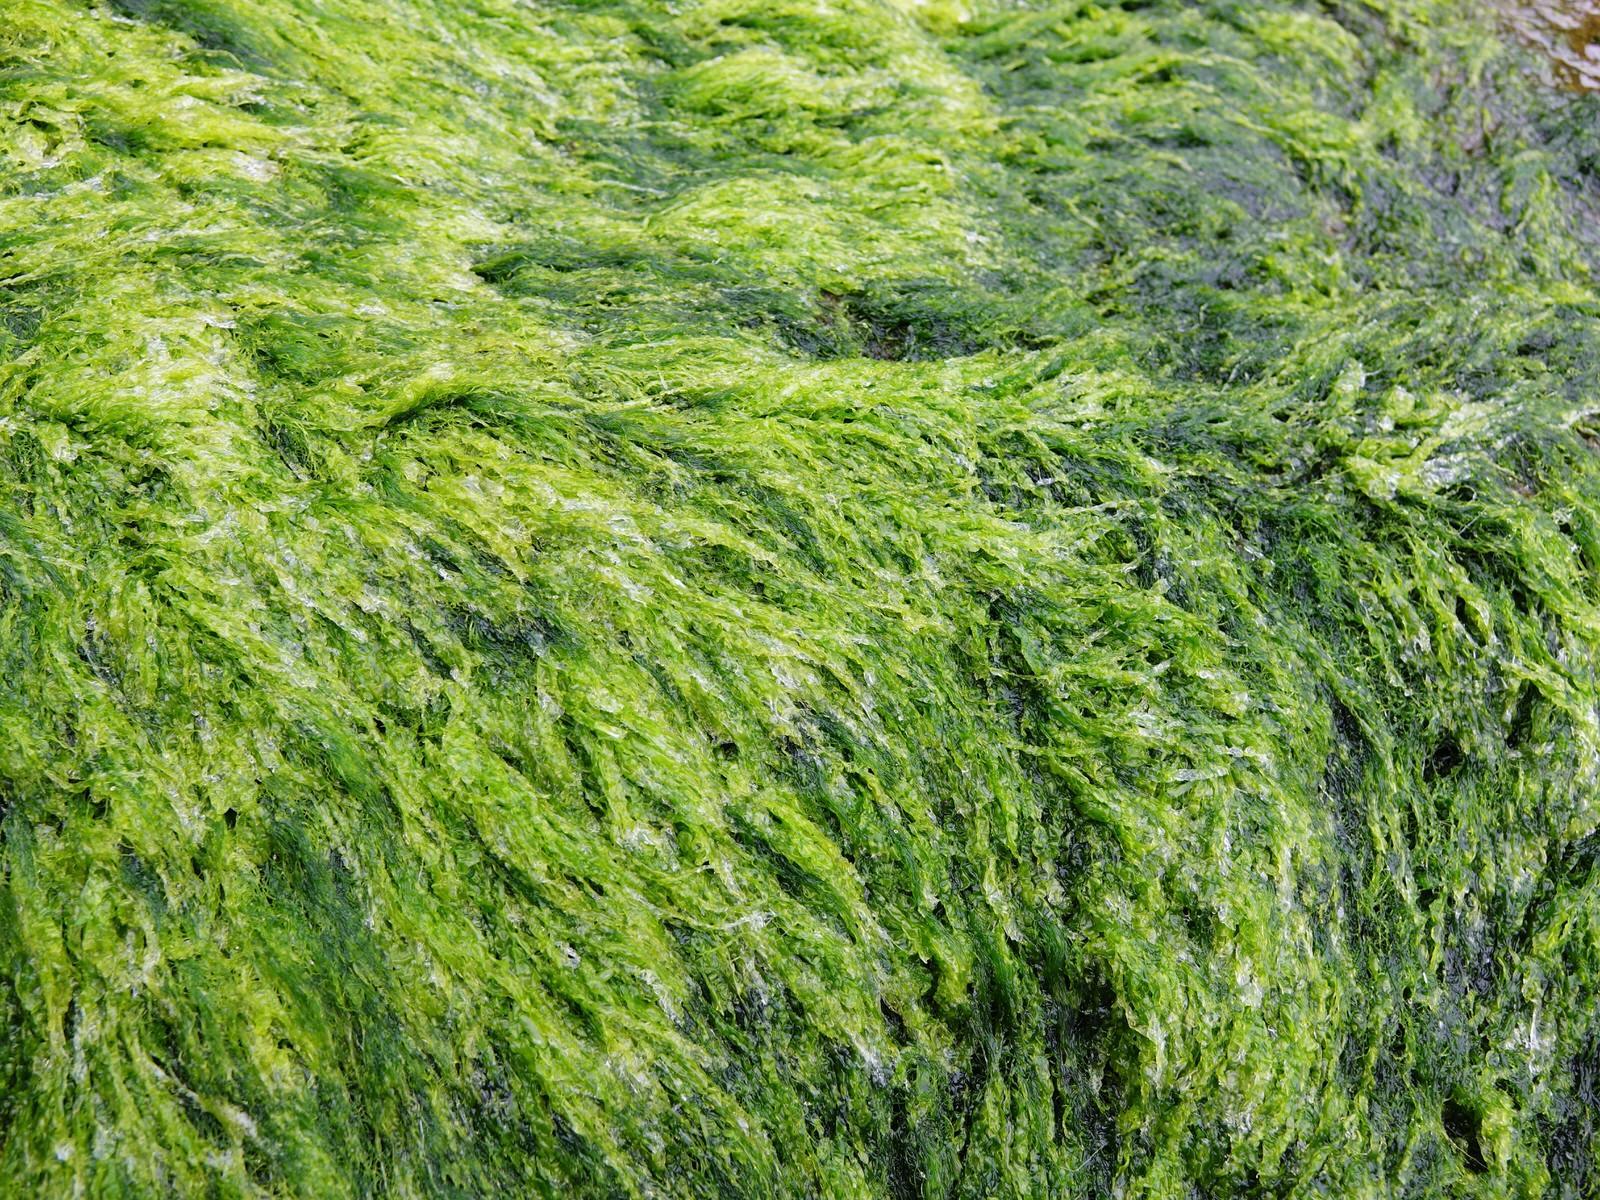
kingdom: Plantae
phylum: Chlorophyta
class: Ulvophyceae
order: Ulvales
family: Ulvaceae
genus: Ulva
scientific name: Ulva compressa
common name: Thread weed
